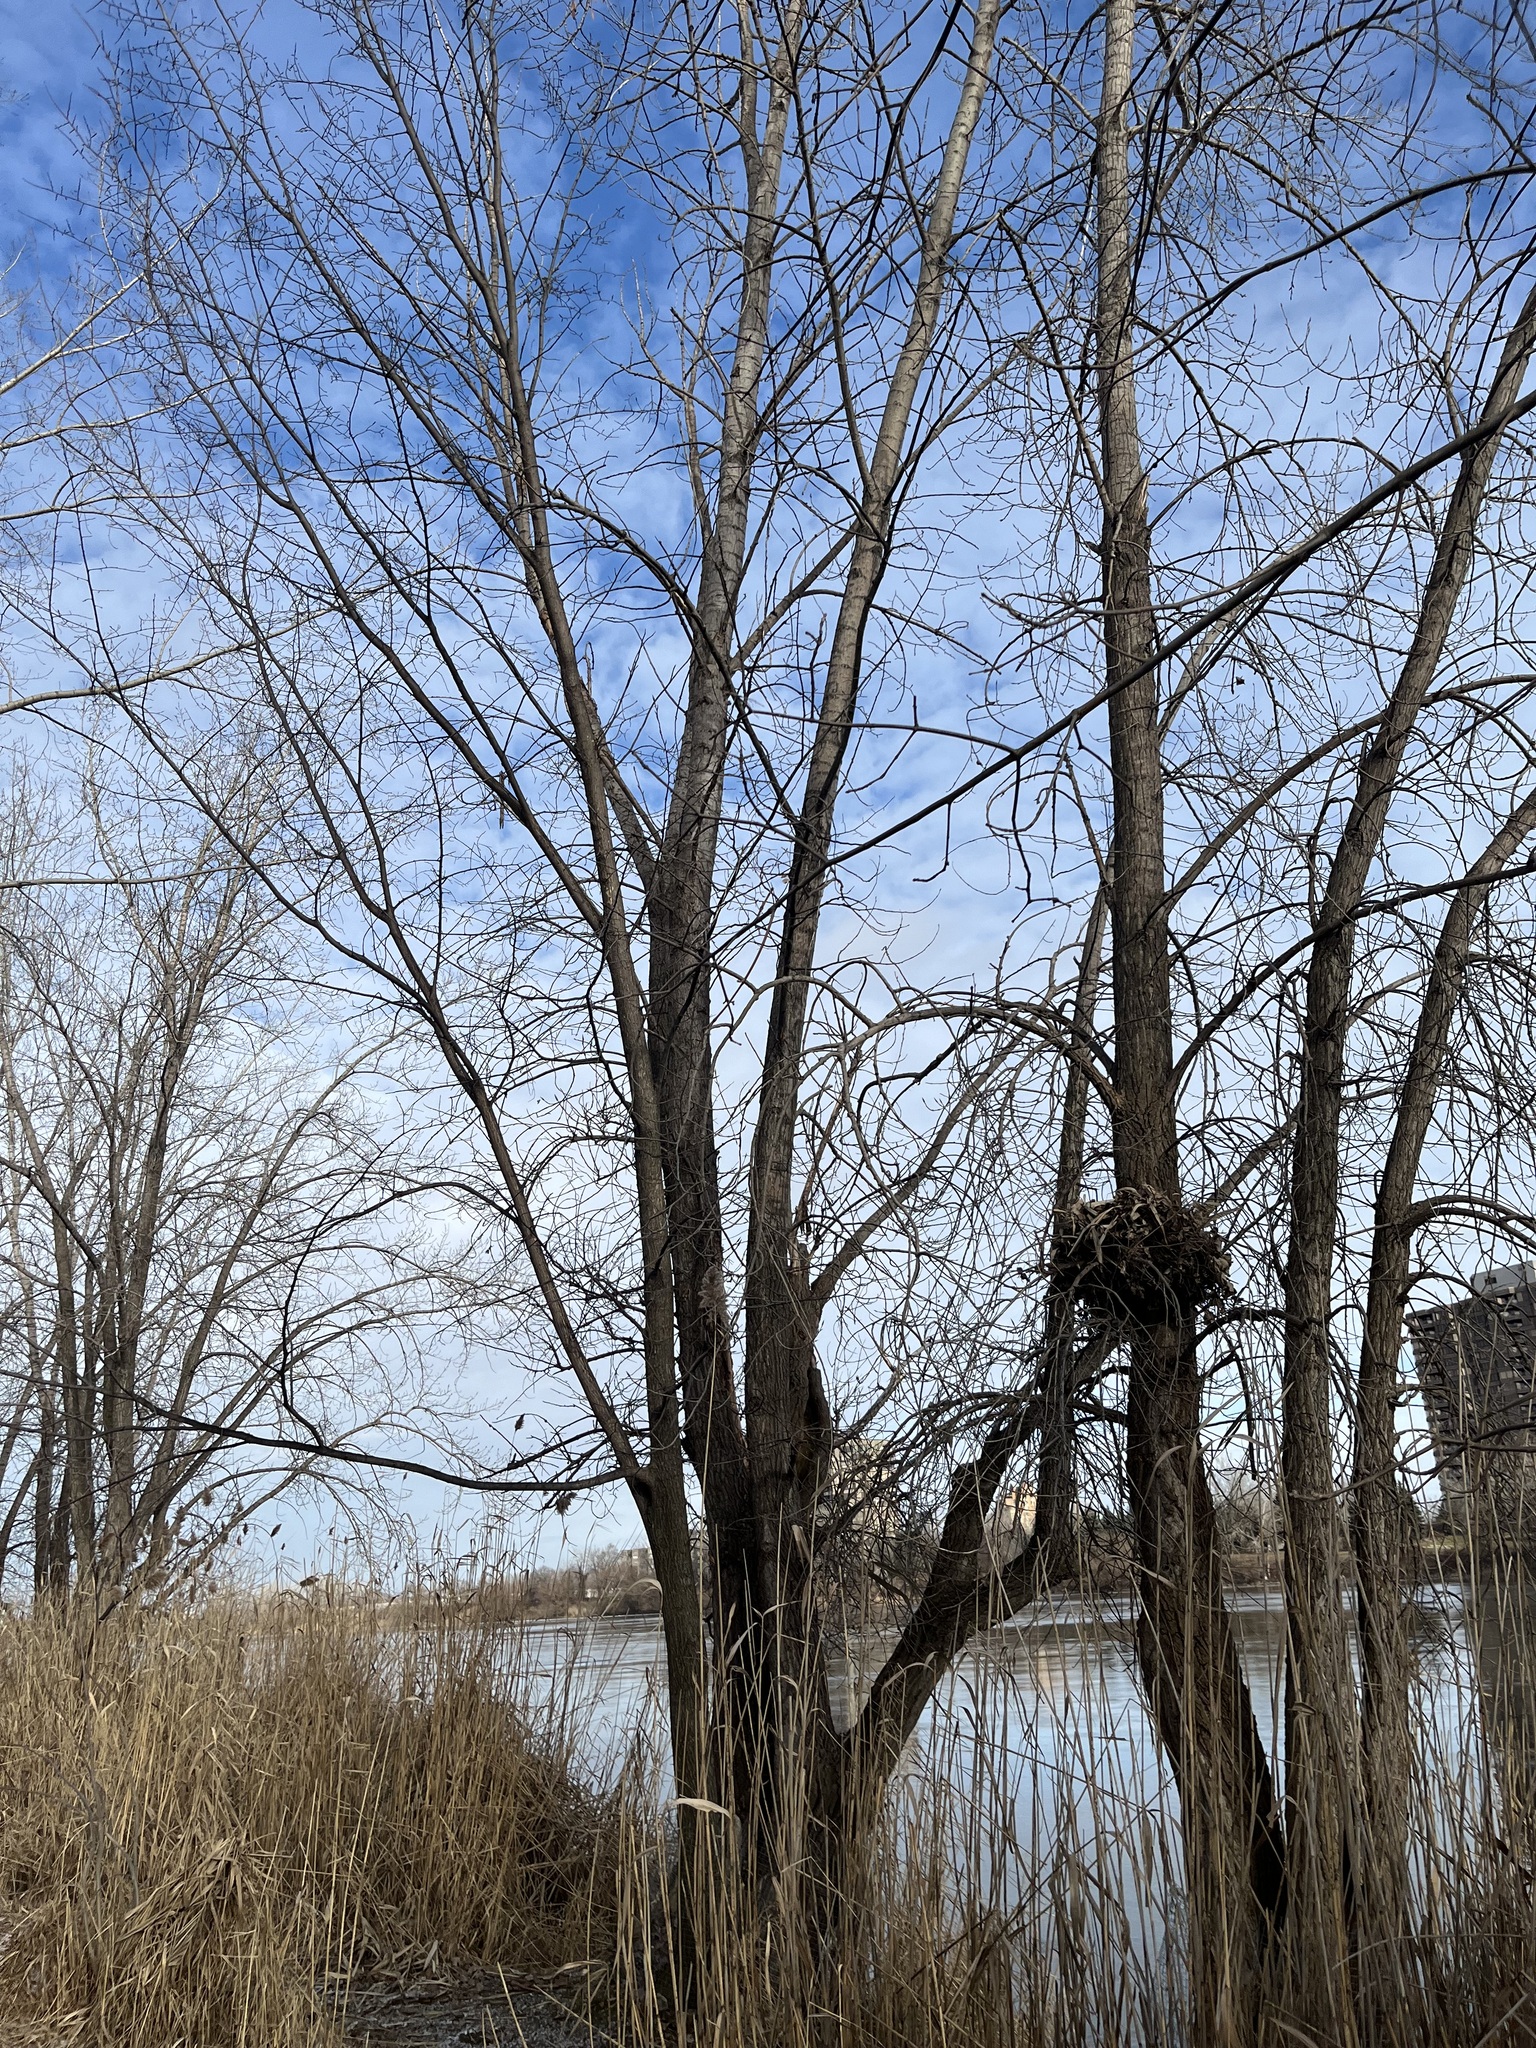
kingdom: Plantae
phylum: Tracheophyta
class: Magnoliopsida
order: Malpighiales
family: Salicaceae
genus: Populus
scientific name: Populus deltoides
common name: Eastern cottonwood
